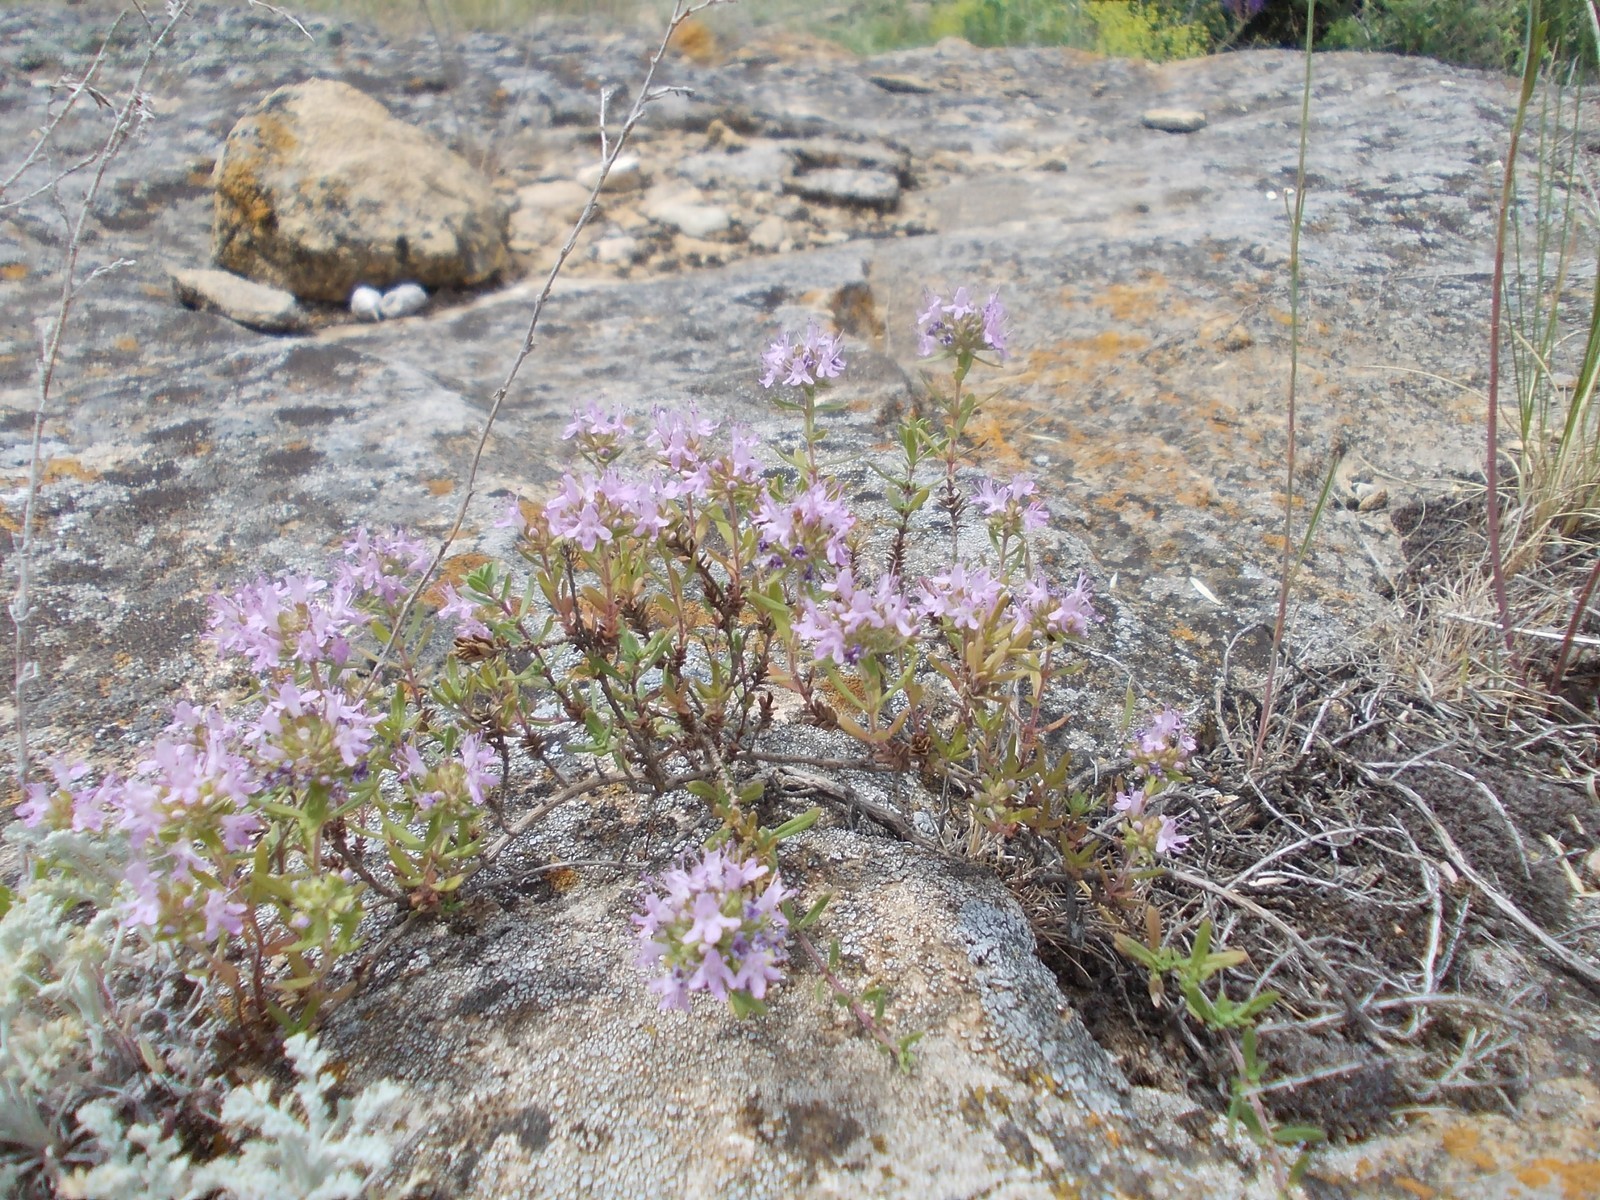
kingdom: Plantae
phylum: Tracheophyta
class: Magnoliopsida
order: Lamiales
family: Lamiaceae
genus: Thymus
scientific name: Thymus kirgisorum
